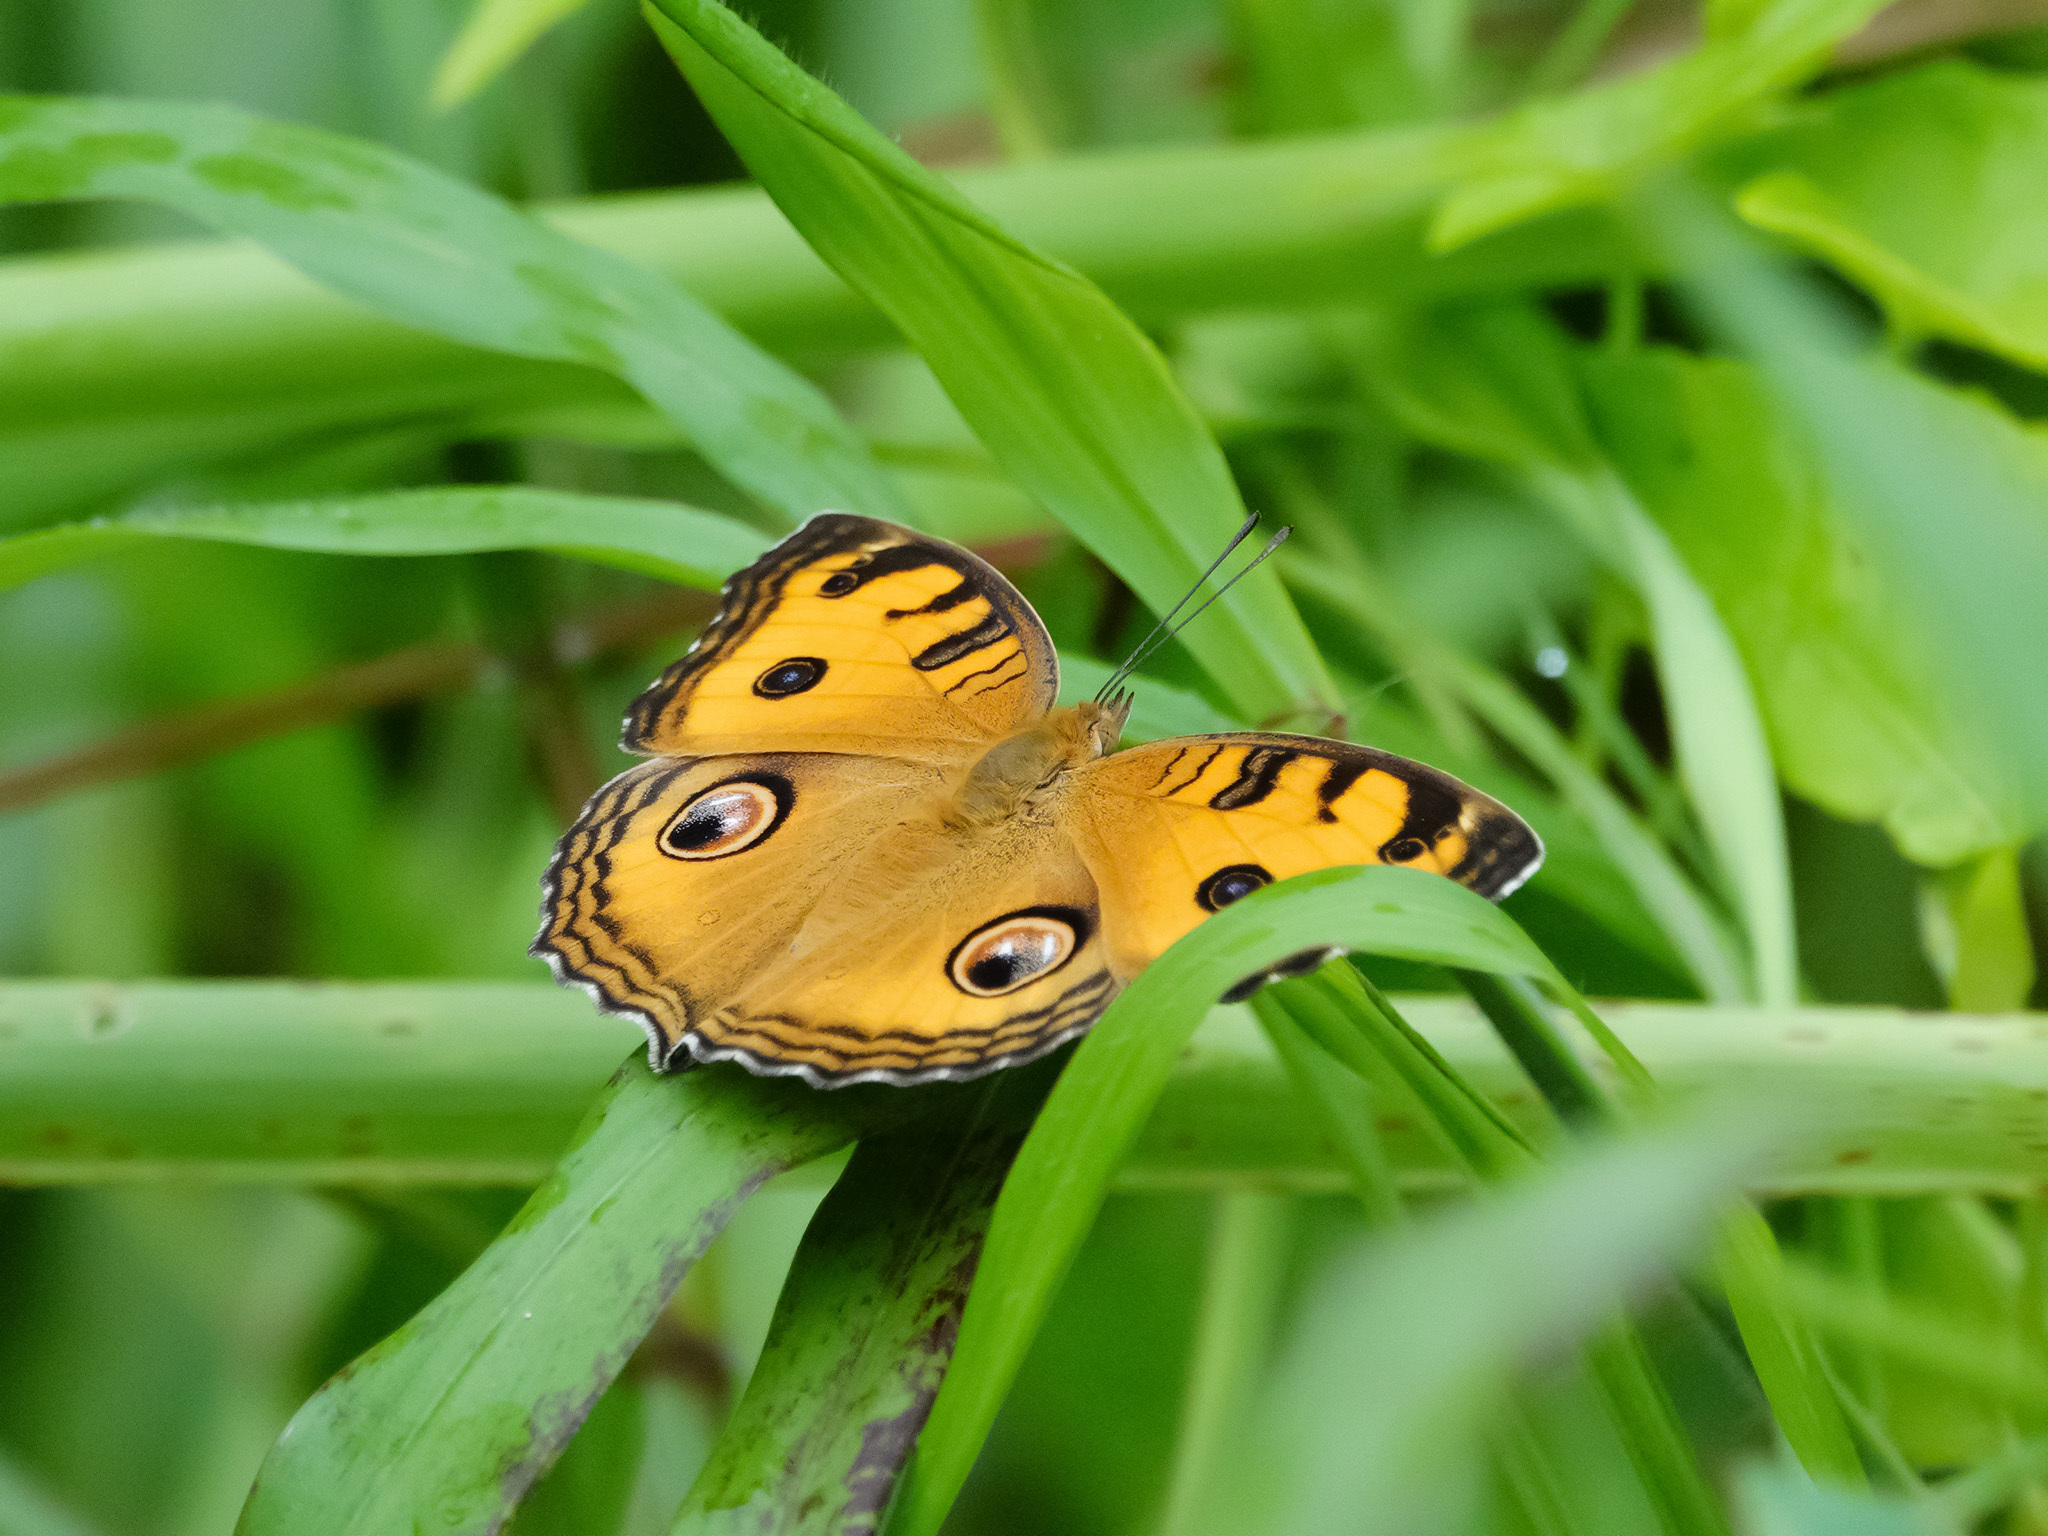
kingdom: Animalia
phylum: Arthropoda
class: Insecta
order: Lepidoptera
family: Nymphalidae
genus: Junonia
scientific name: Junonia almana
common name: Peacock pansy
